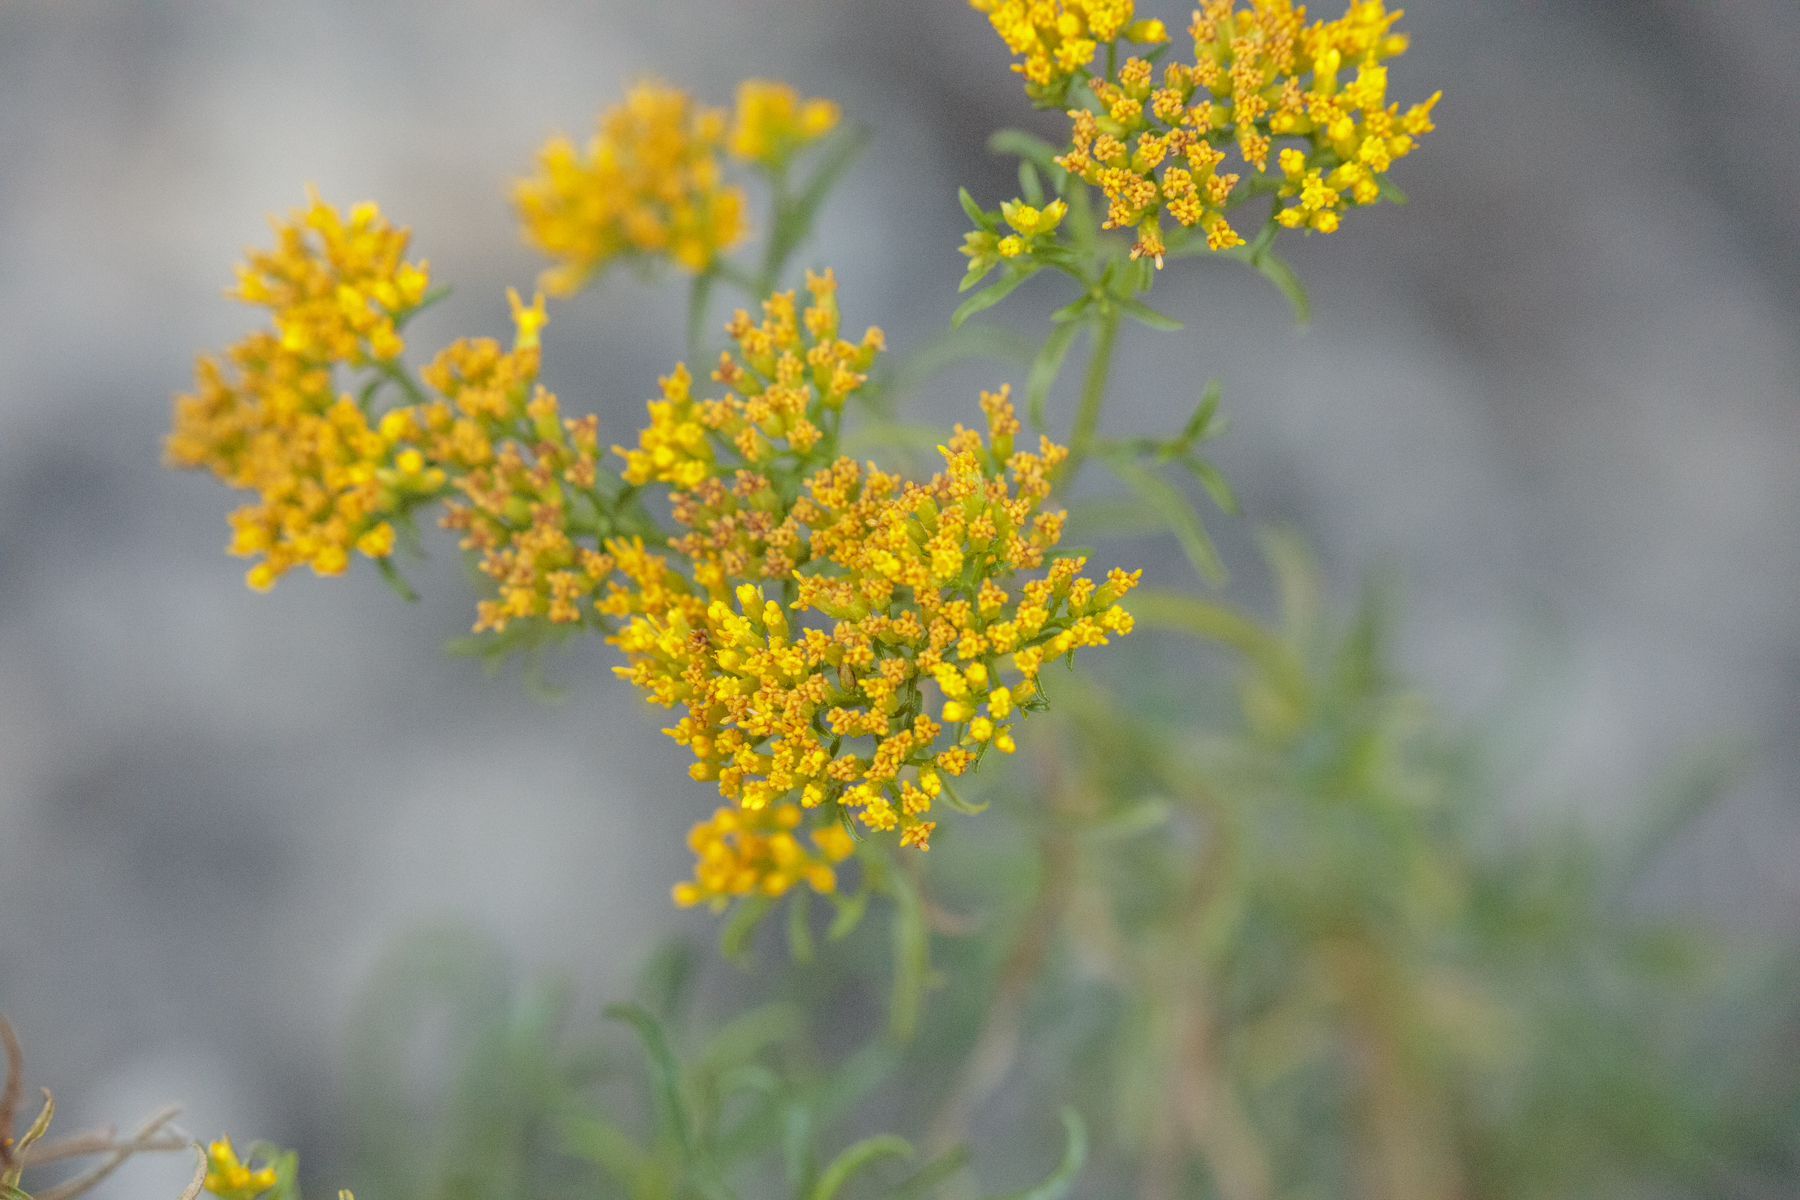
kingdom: Plantae
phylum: Tracheophyta
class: Magnoliopsida
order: Asterales
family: Asteraceae
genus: Gymnosperma
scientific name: Gymnosperma glutinosum
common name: Gumhead
